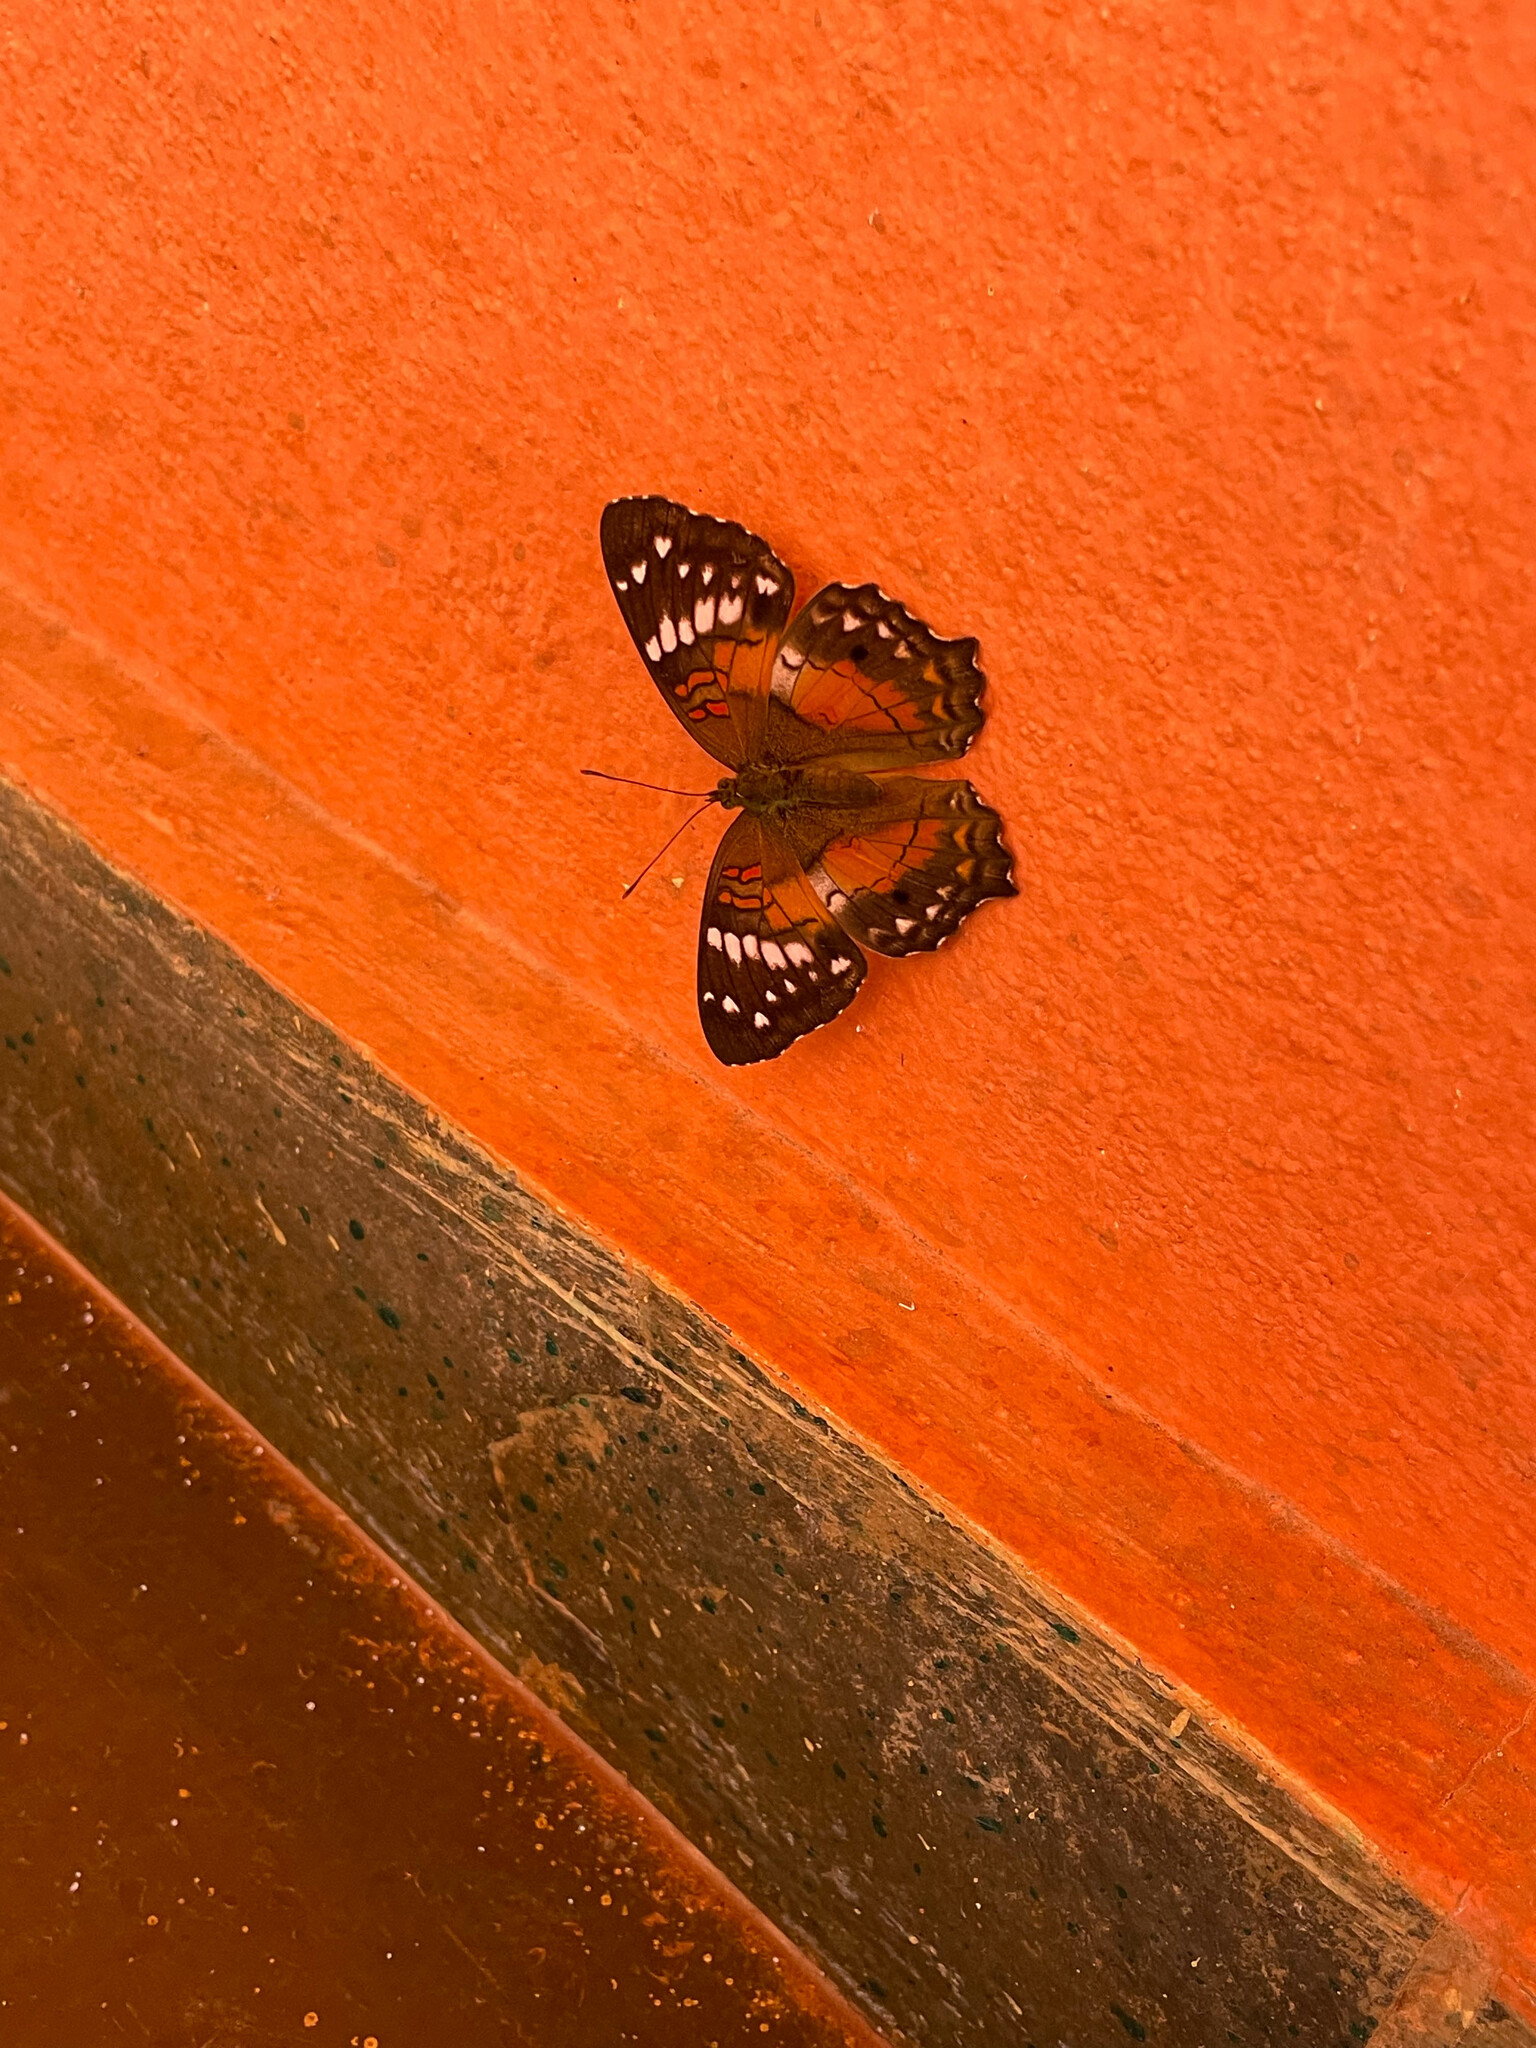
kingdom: Animalia
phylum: Arthropoda
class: Insecta
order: Lepidoptera
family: Nymphalidae
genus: Anartia
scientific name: Anartia amathea
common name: Red peacock
